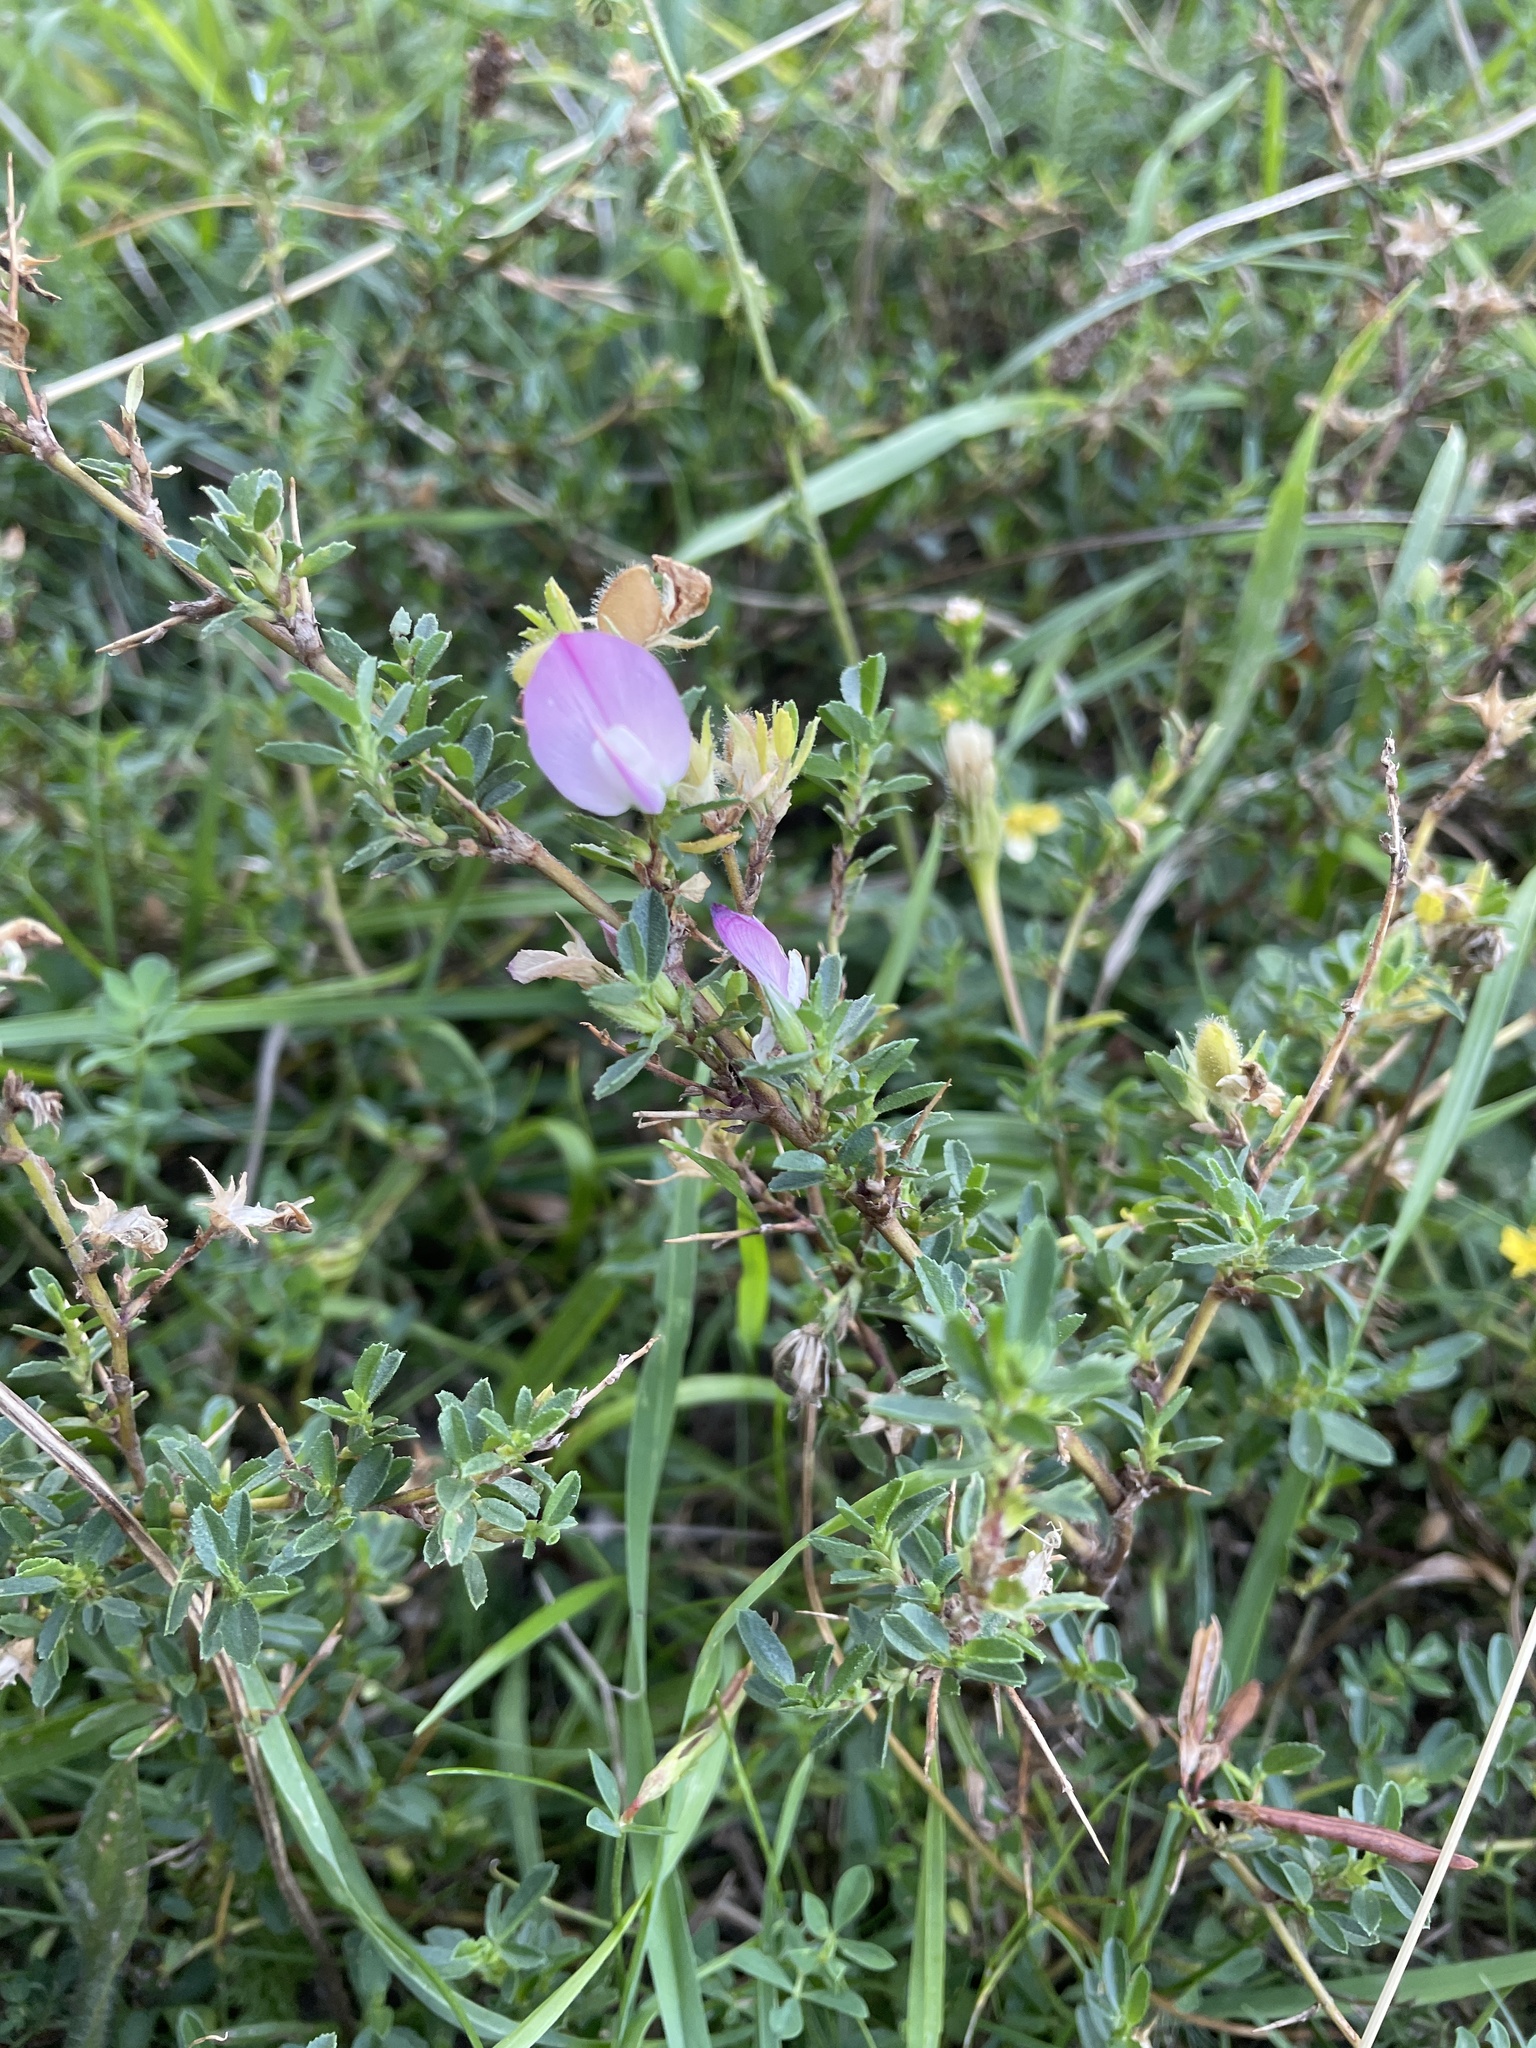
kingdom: Plantae
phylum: Tracheophyta
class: Magnoliopsida
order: Fabales
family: Fabaceae
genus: Ononis
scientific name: Ononis spinosa
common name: Spiny restharrow
